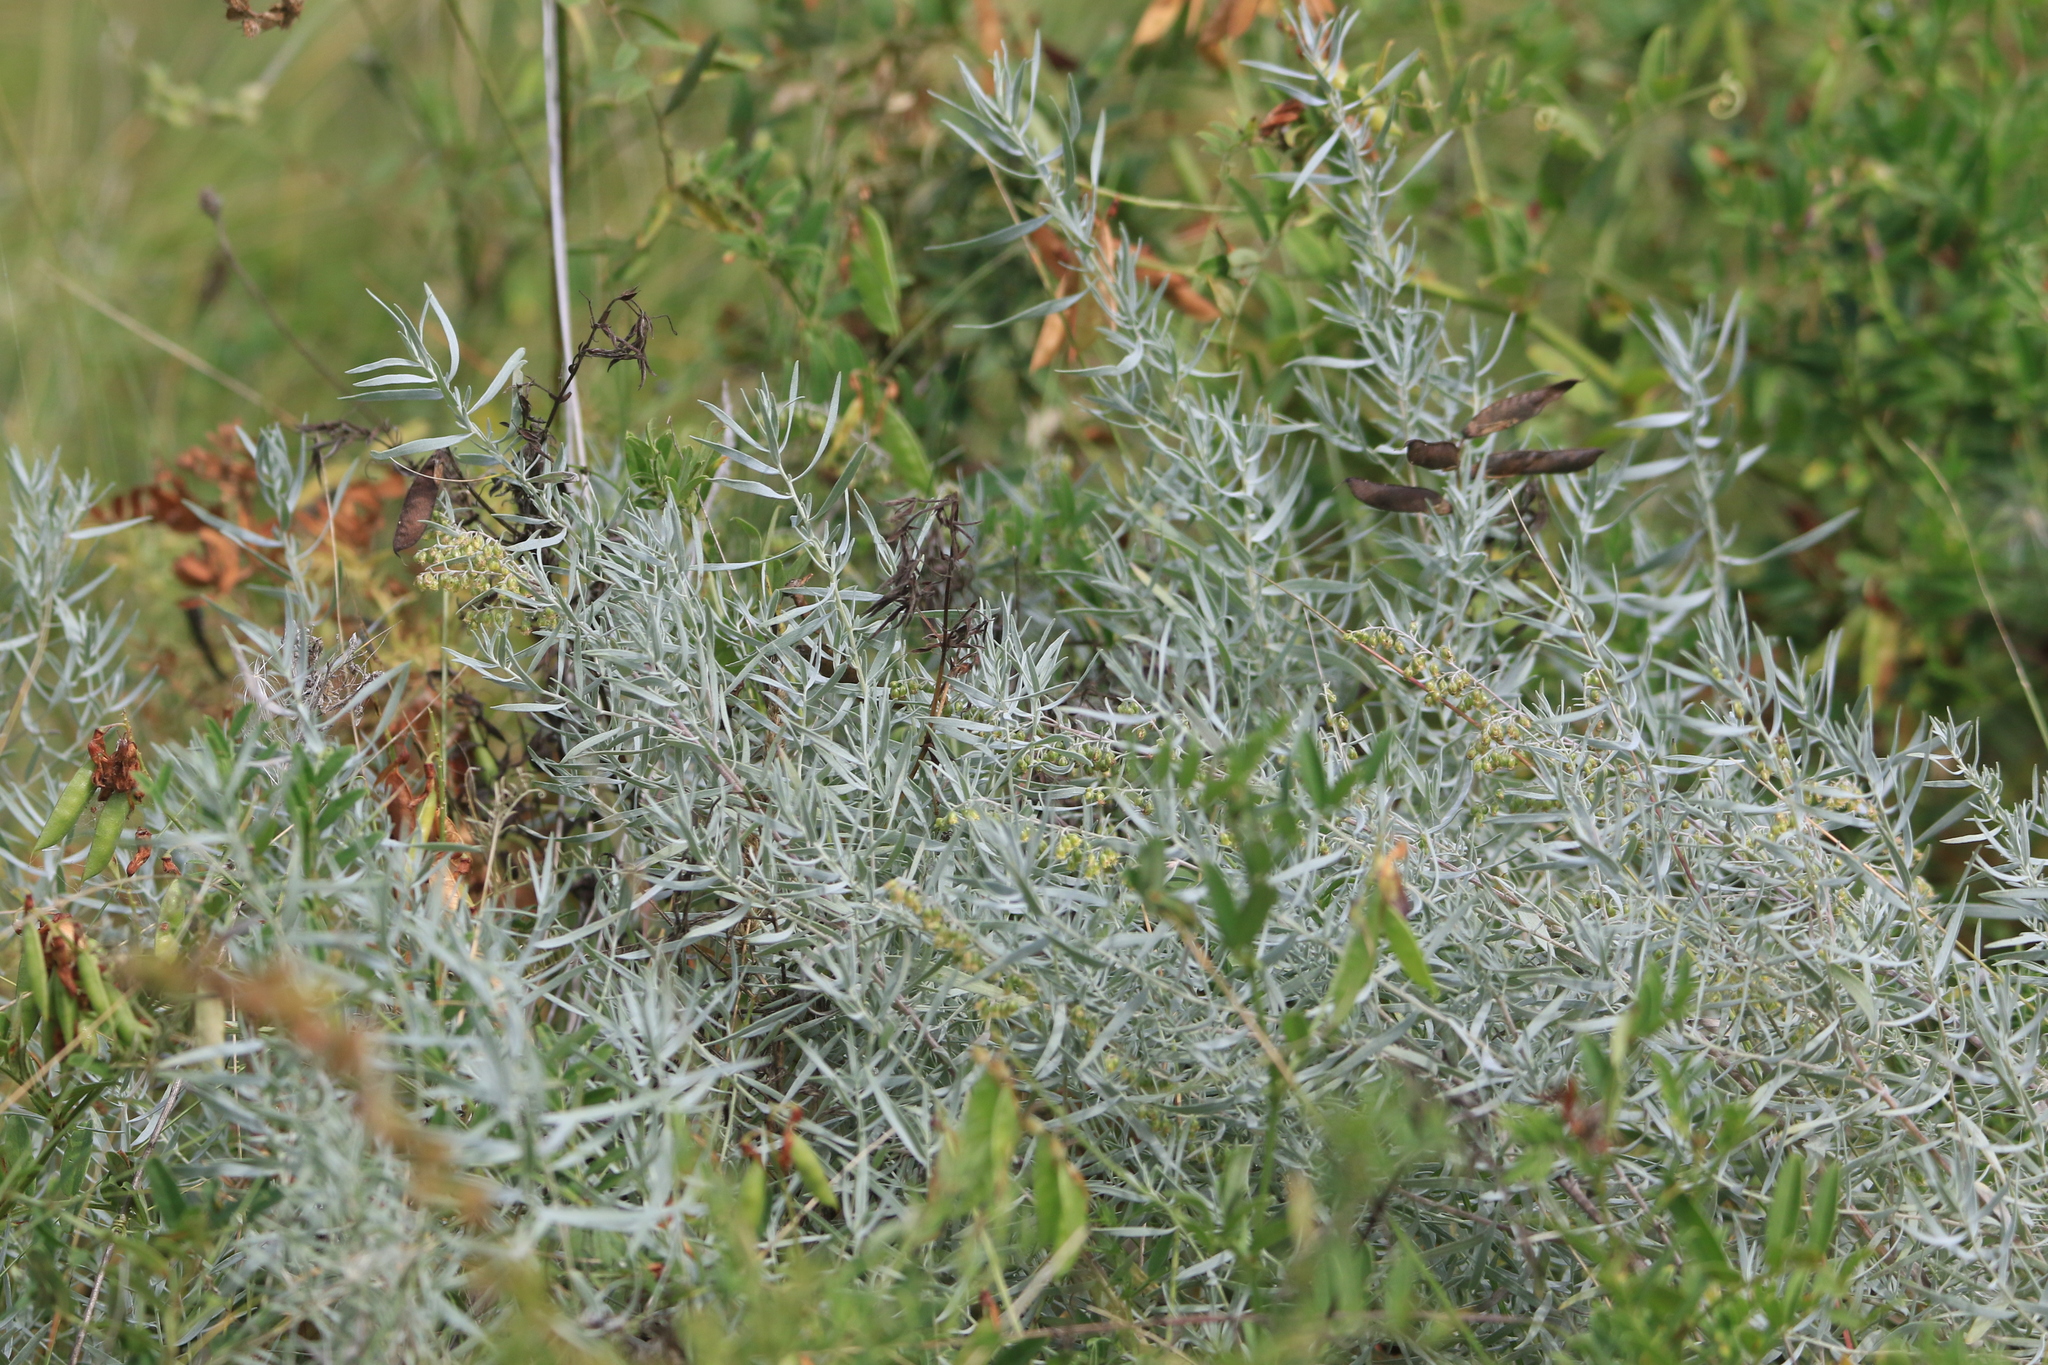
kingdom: Plantae
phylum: Tracheophyta
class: Magnoliopsida
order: Asterales
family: Asteraceae
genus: Artemisia
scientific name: Artemisia glauca
